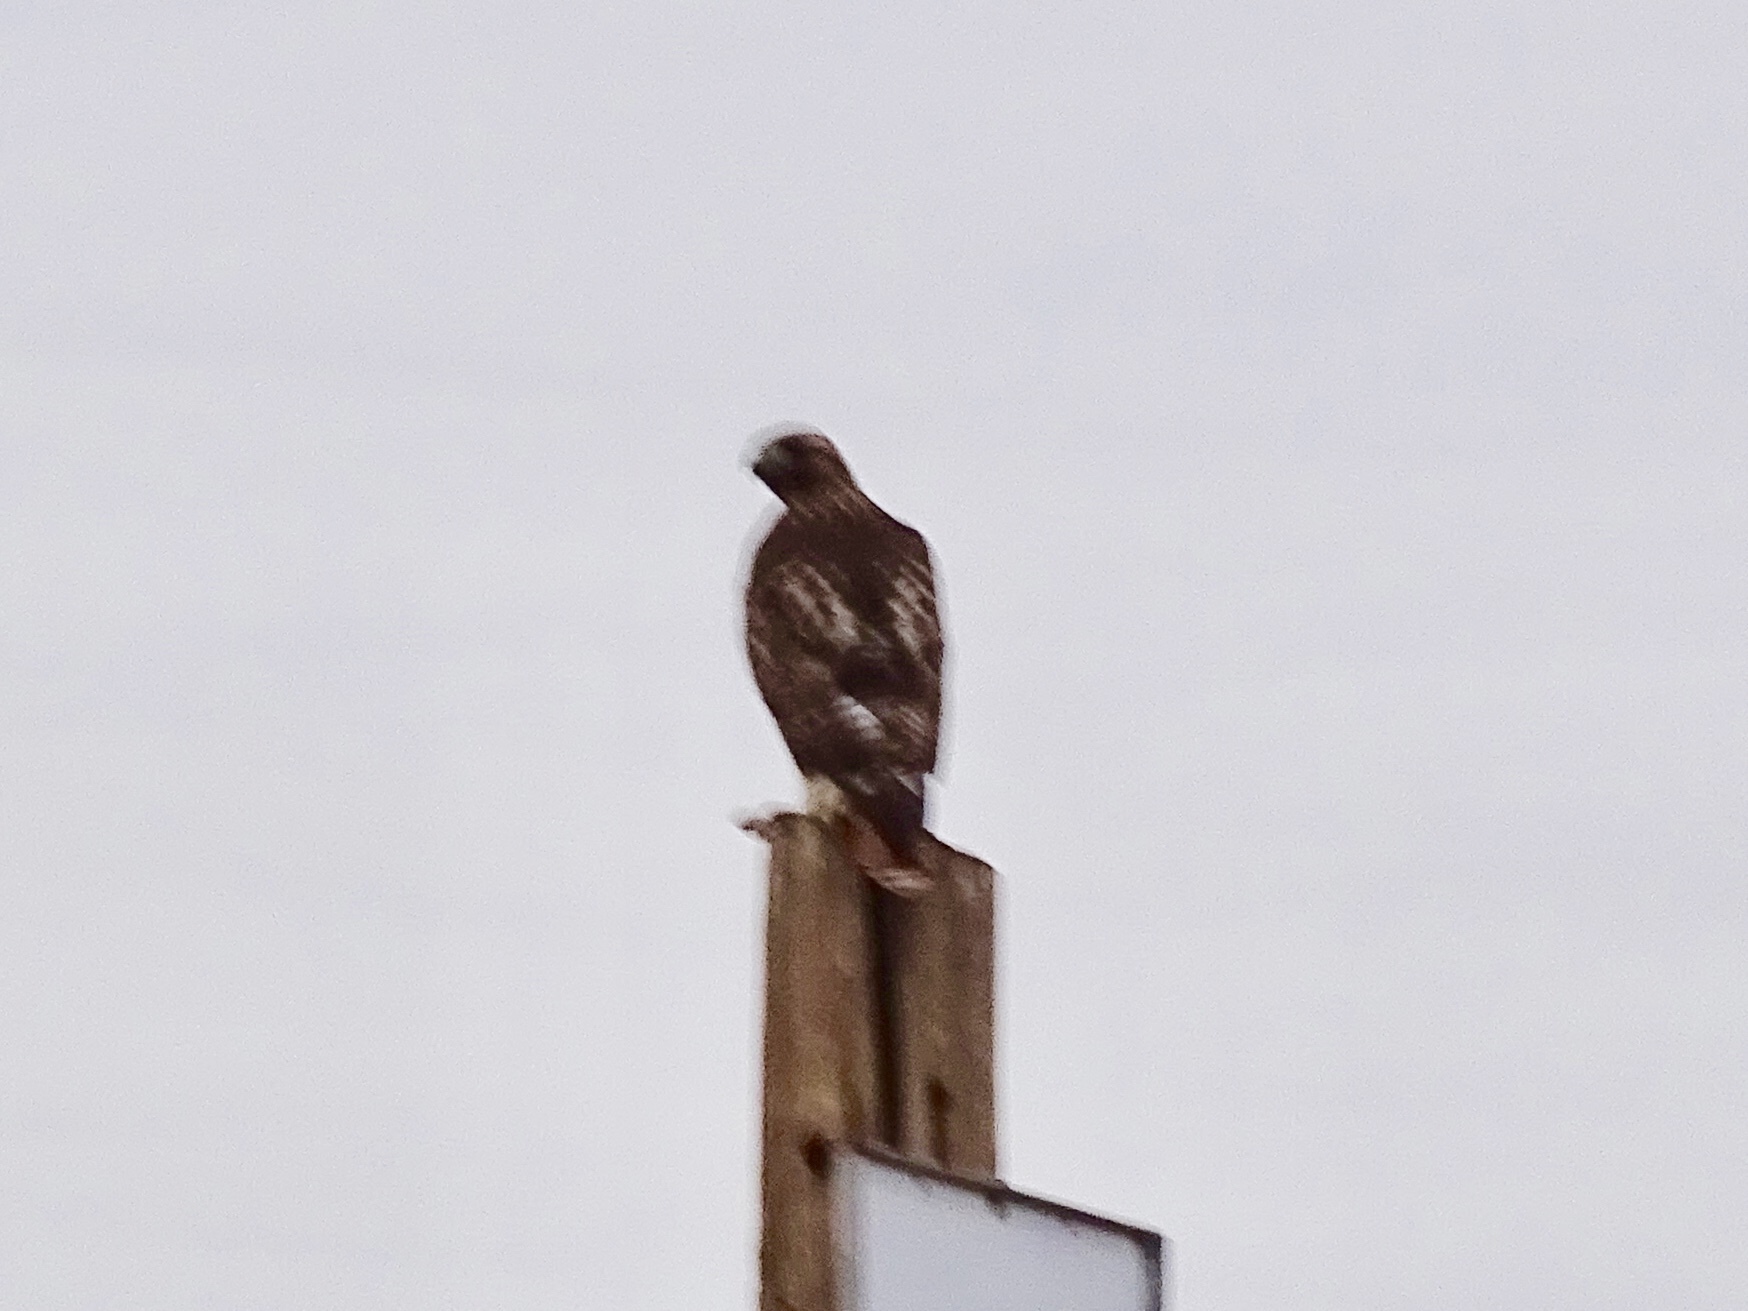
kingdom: Animalia
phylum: Chordata
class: Aves
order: Accipitriformes
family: Accipitridae
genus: Buteo
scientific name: Buteo jamaicensis
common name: Red-tailed hawk
